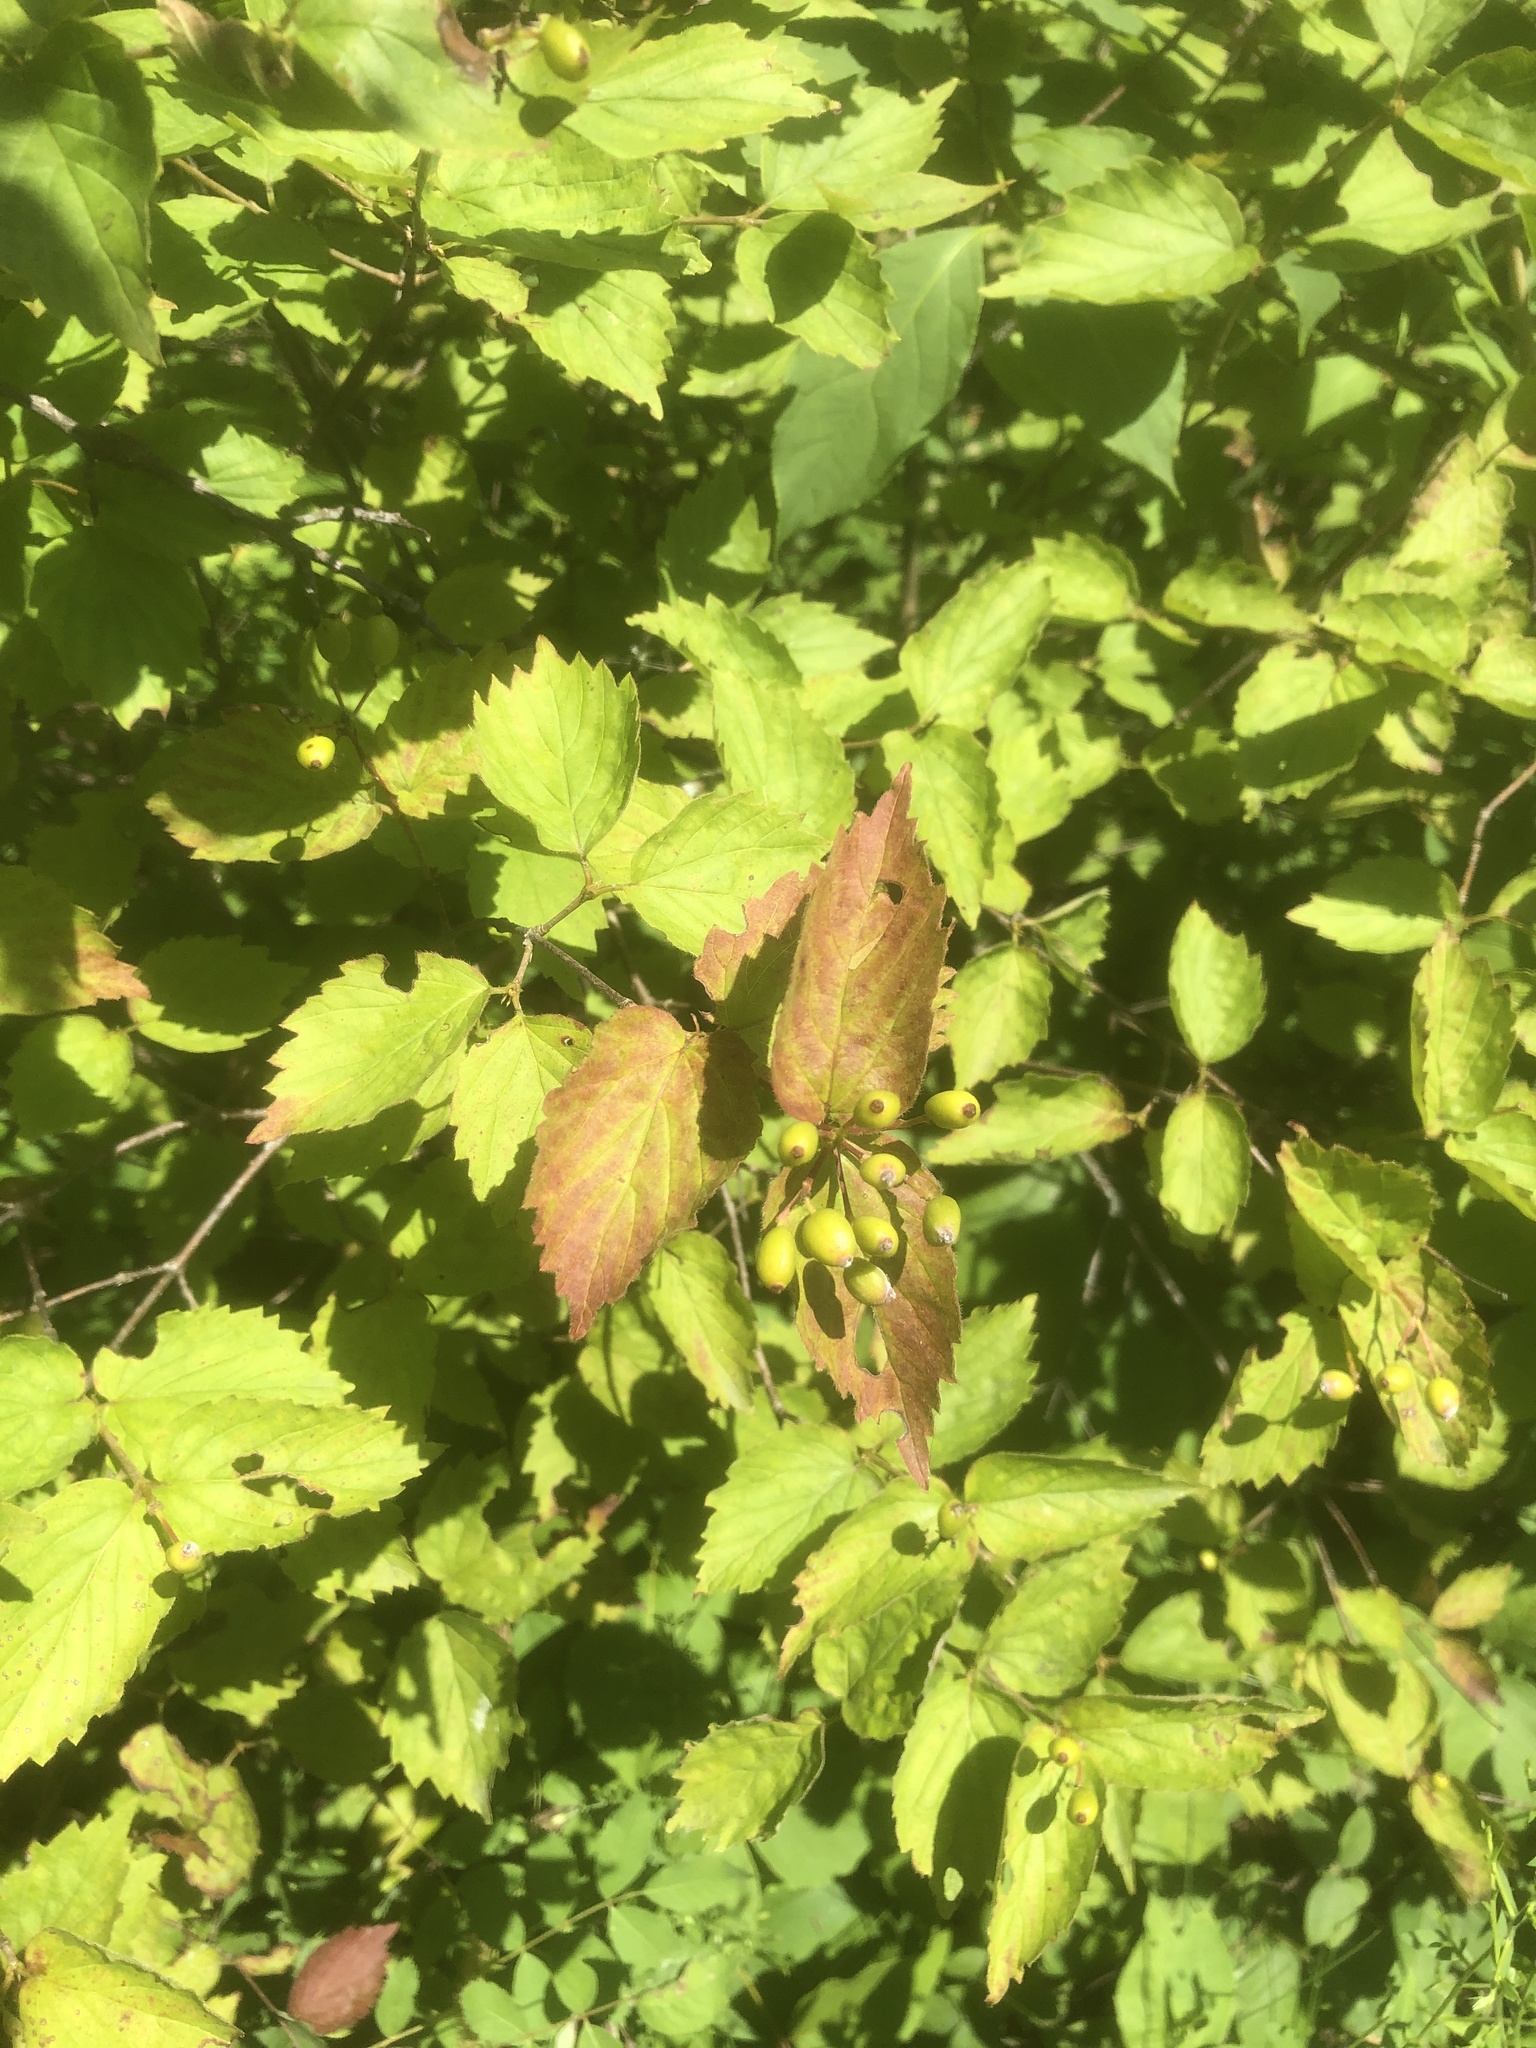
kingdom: Plantae
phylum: Tracheophyta
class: Magnoliopsida
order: Dipsacales
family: Viburnaceae
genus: Viburnum
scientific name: Viburnum rafinesqueanum
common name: Downy arrow-wood
